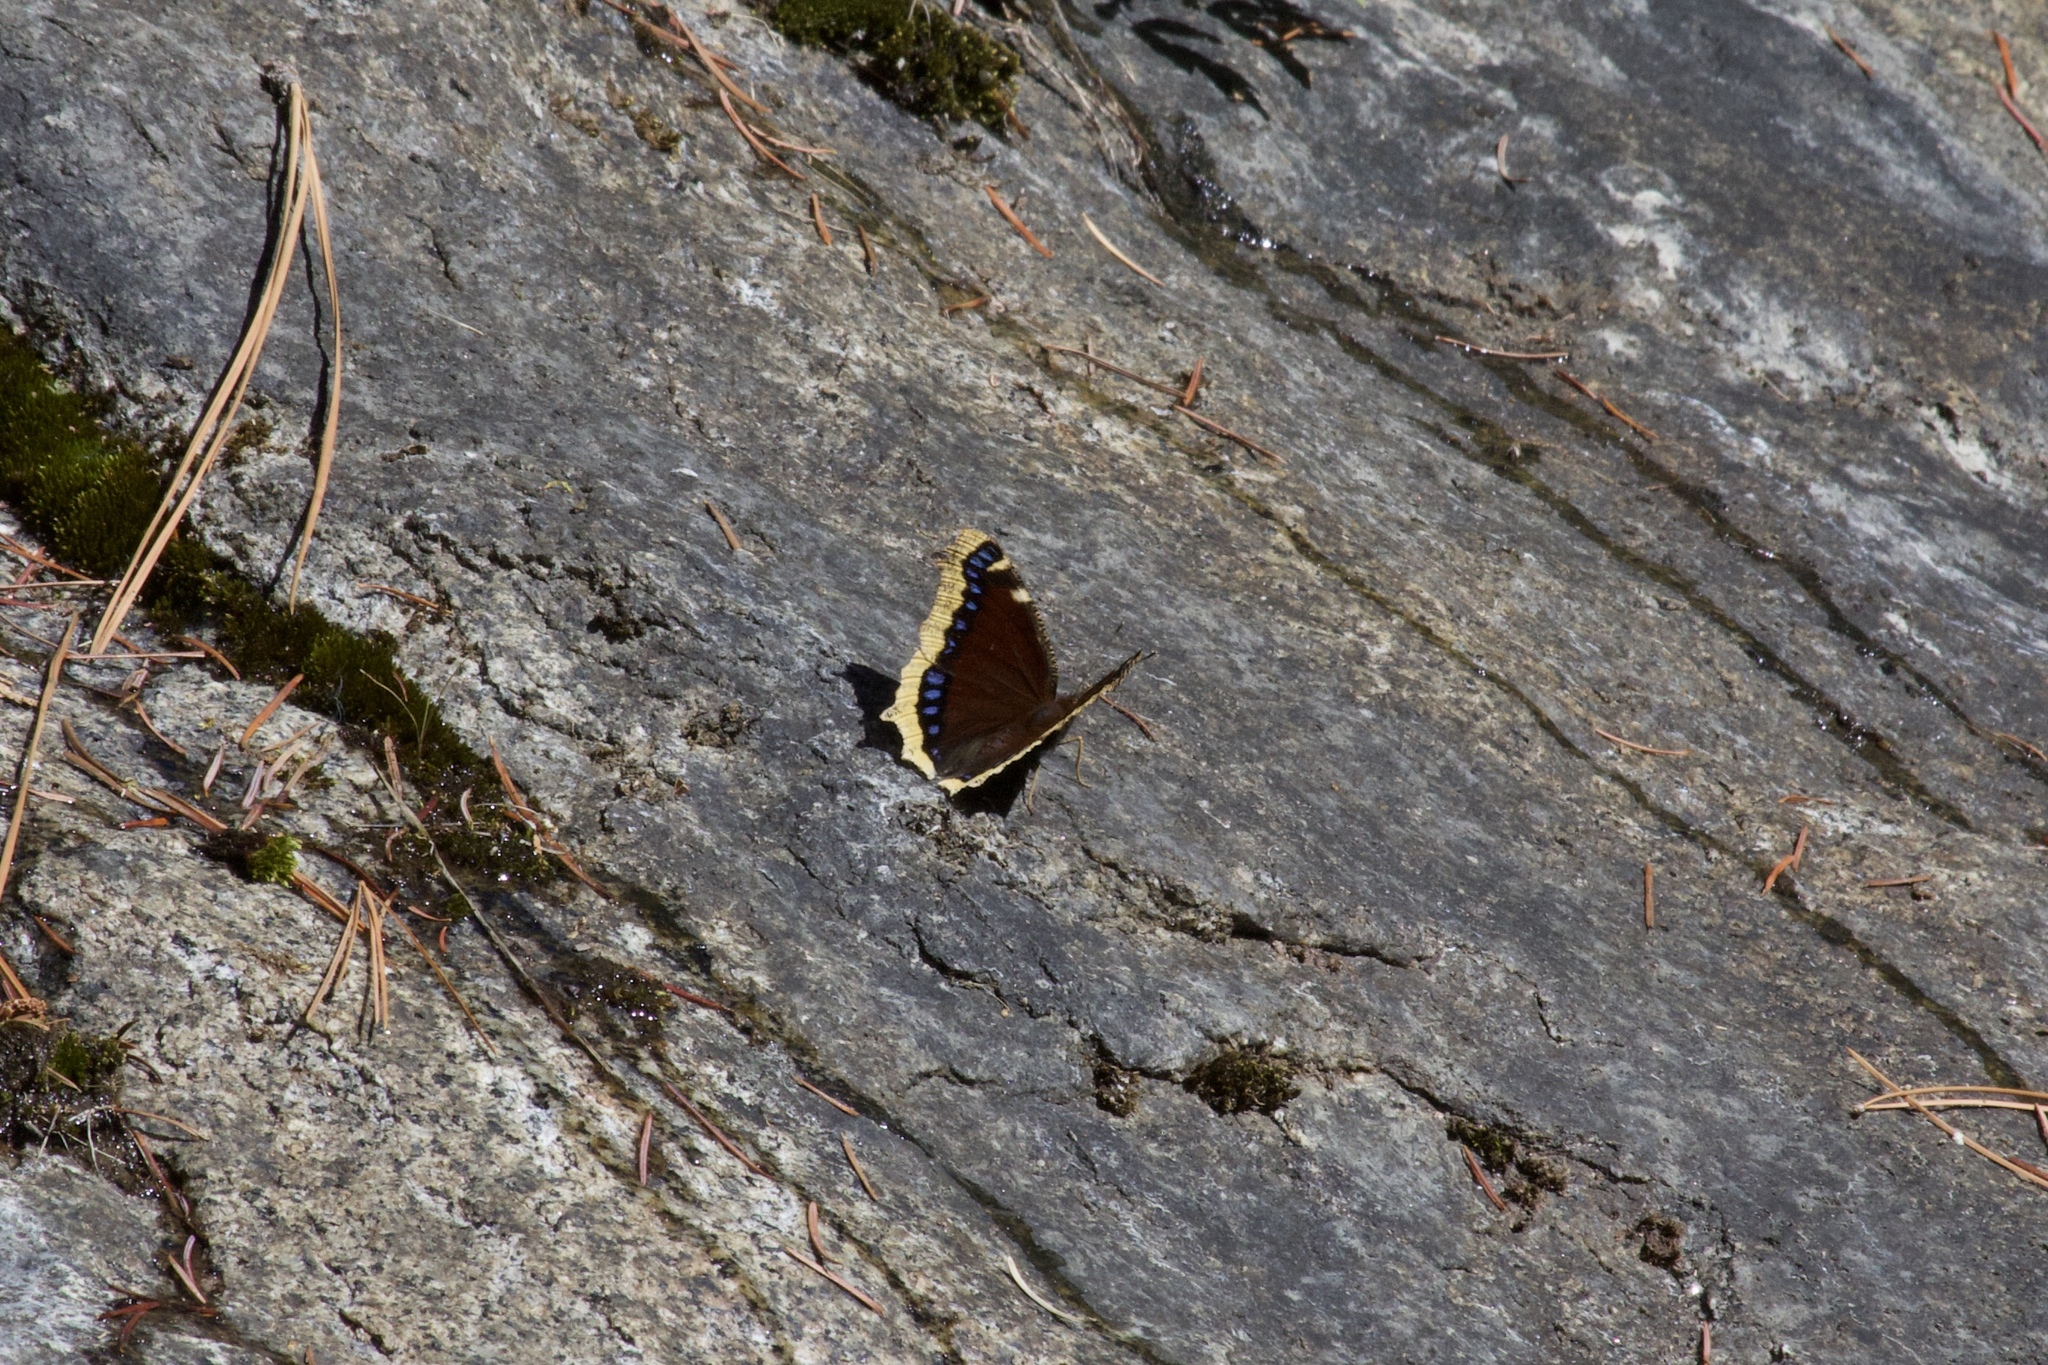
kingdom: Animalia
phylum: Arthropoda
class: Insecta
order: Lepidoptera
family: Nymphalidae
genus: Nymphalis
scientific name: Nymphalis antiopa
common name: Camberwell beauty
